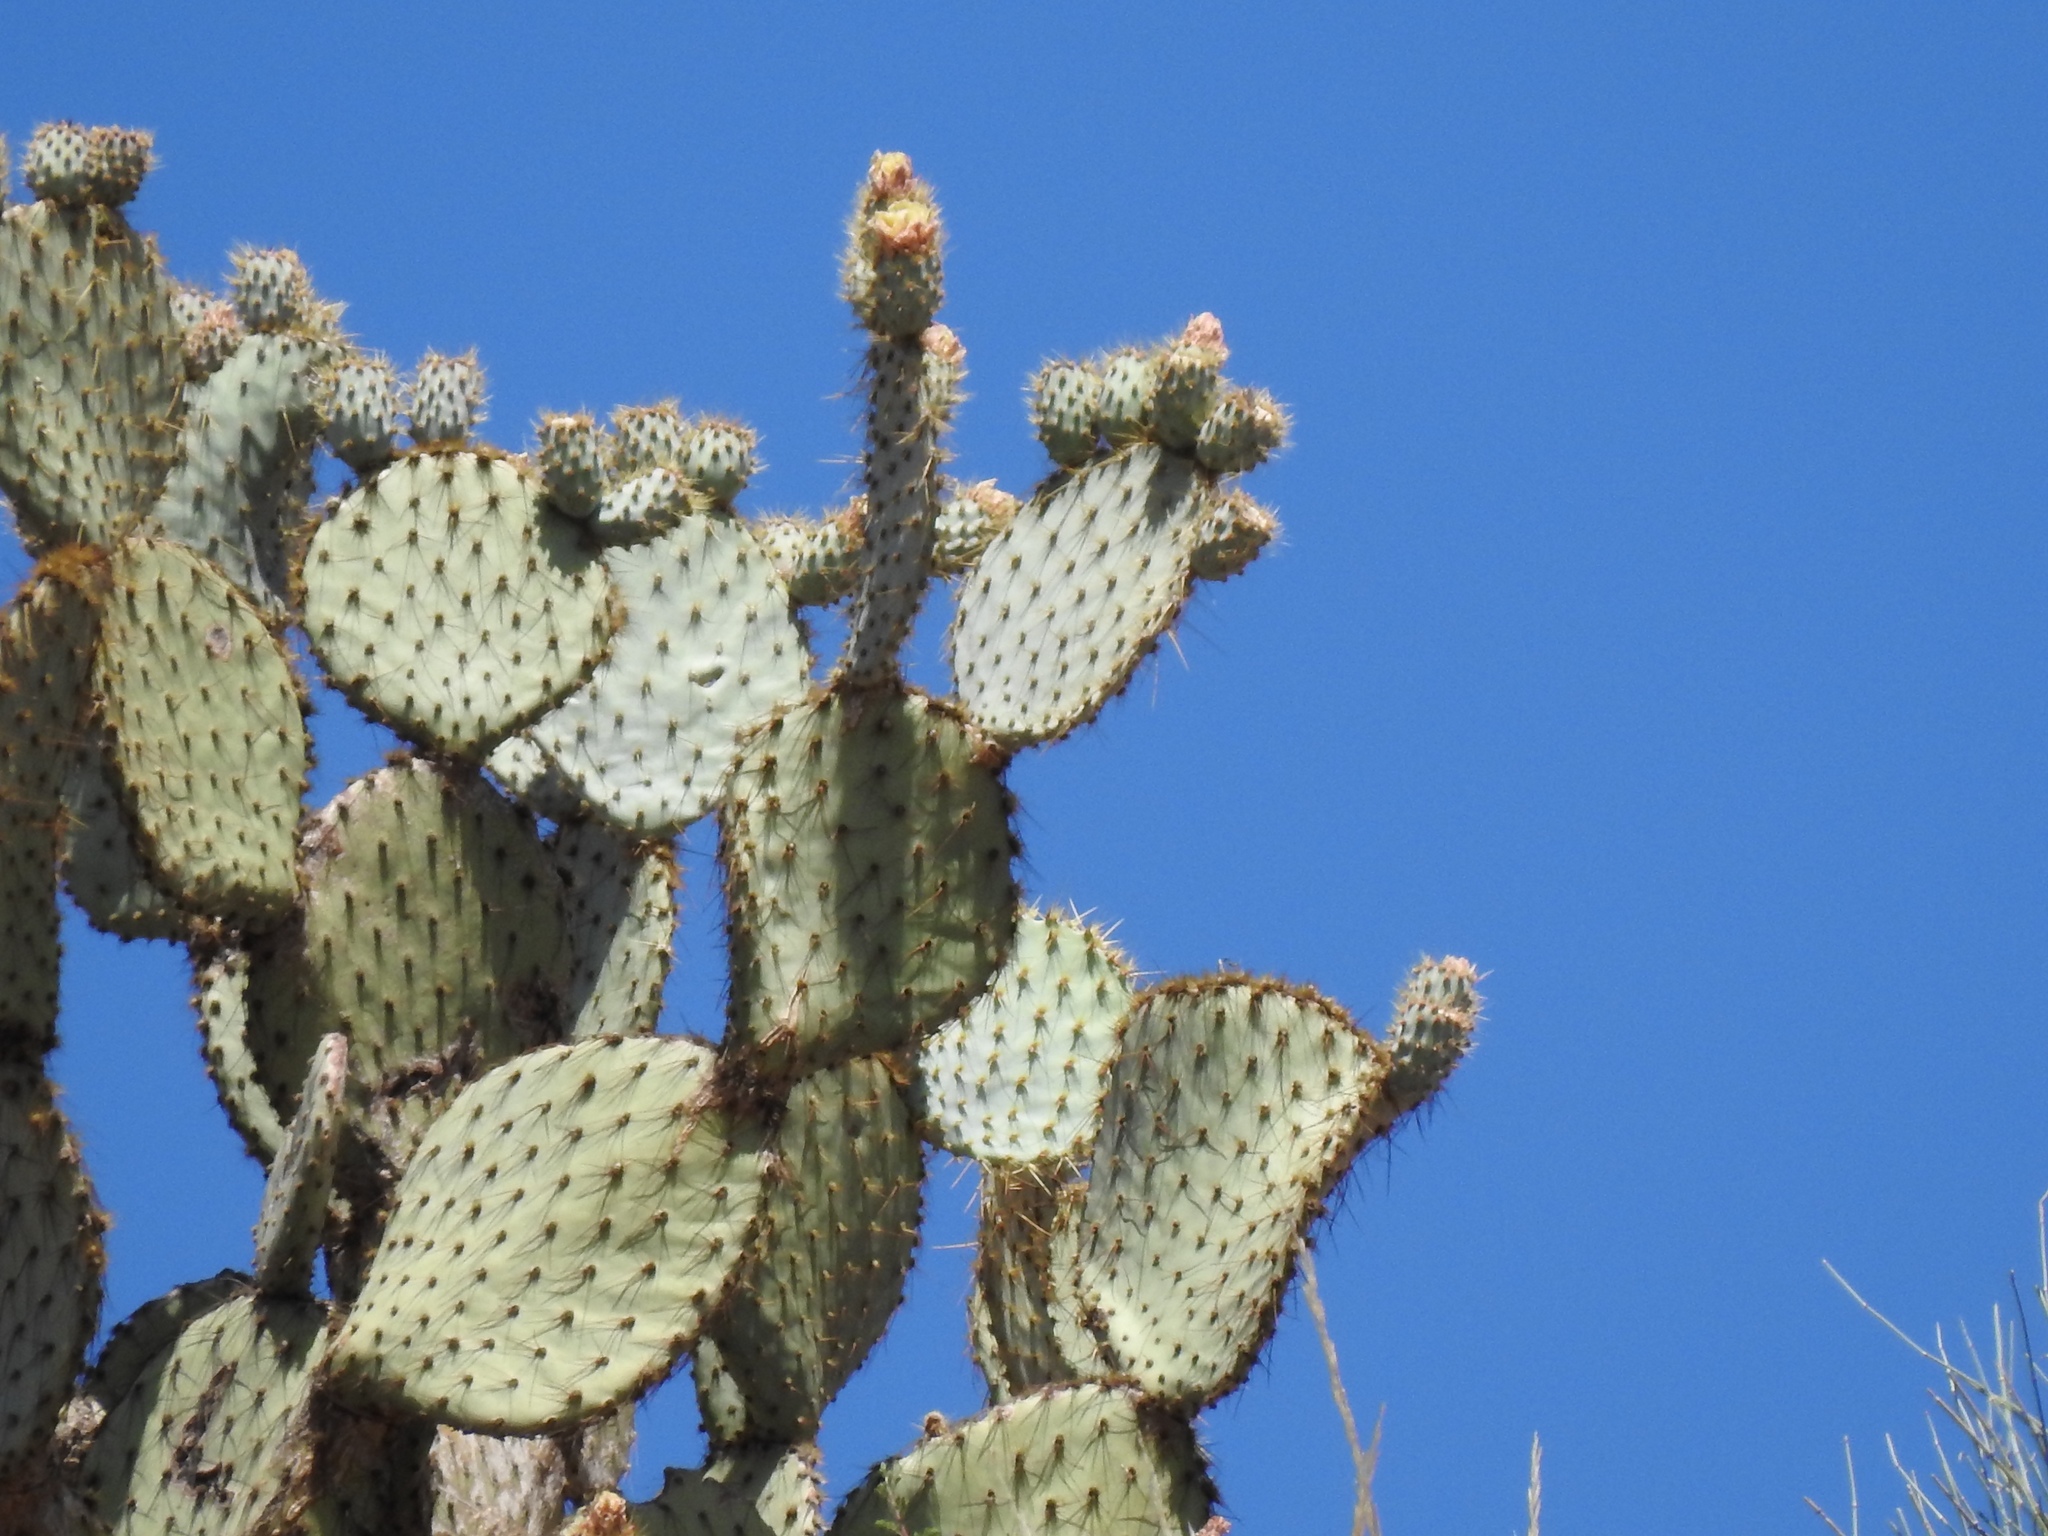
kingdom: Plantae
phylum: Tracheophyta
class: Magnoliopsida
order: Caryophyllales
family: Cactaceae
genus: Opuntia
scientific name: Opuntia chlorotica
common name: Dollar-joint prickly-pear
